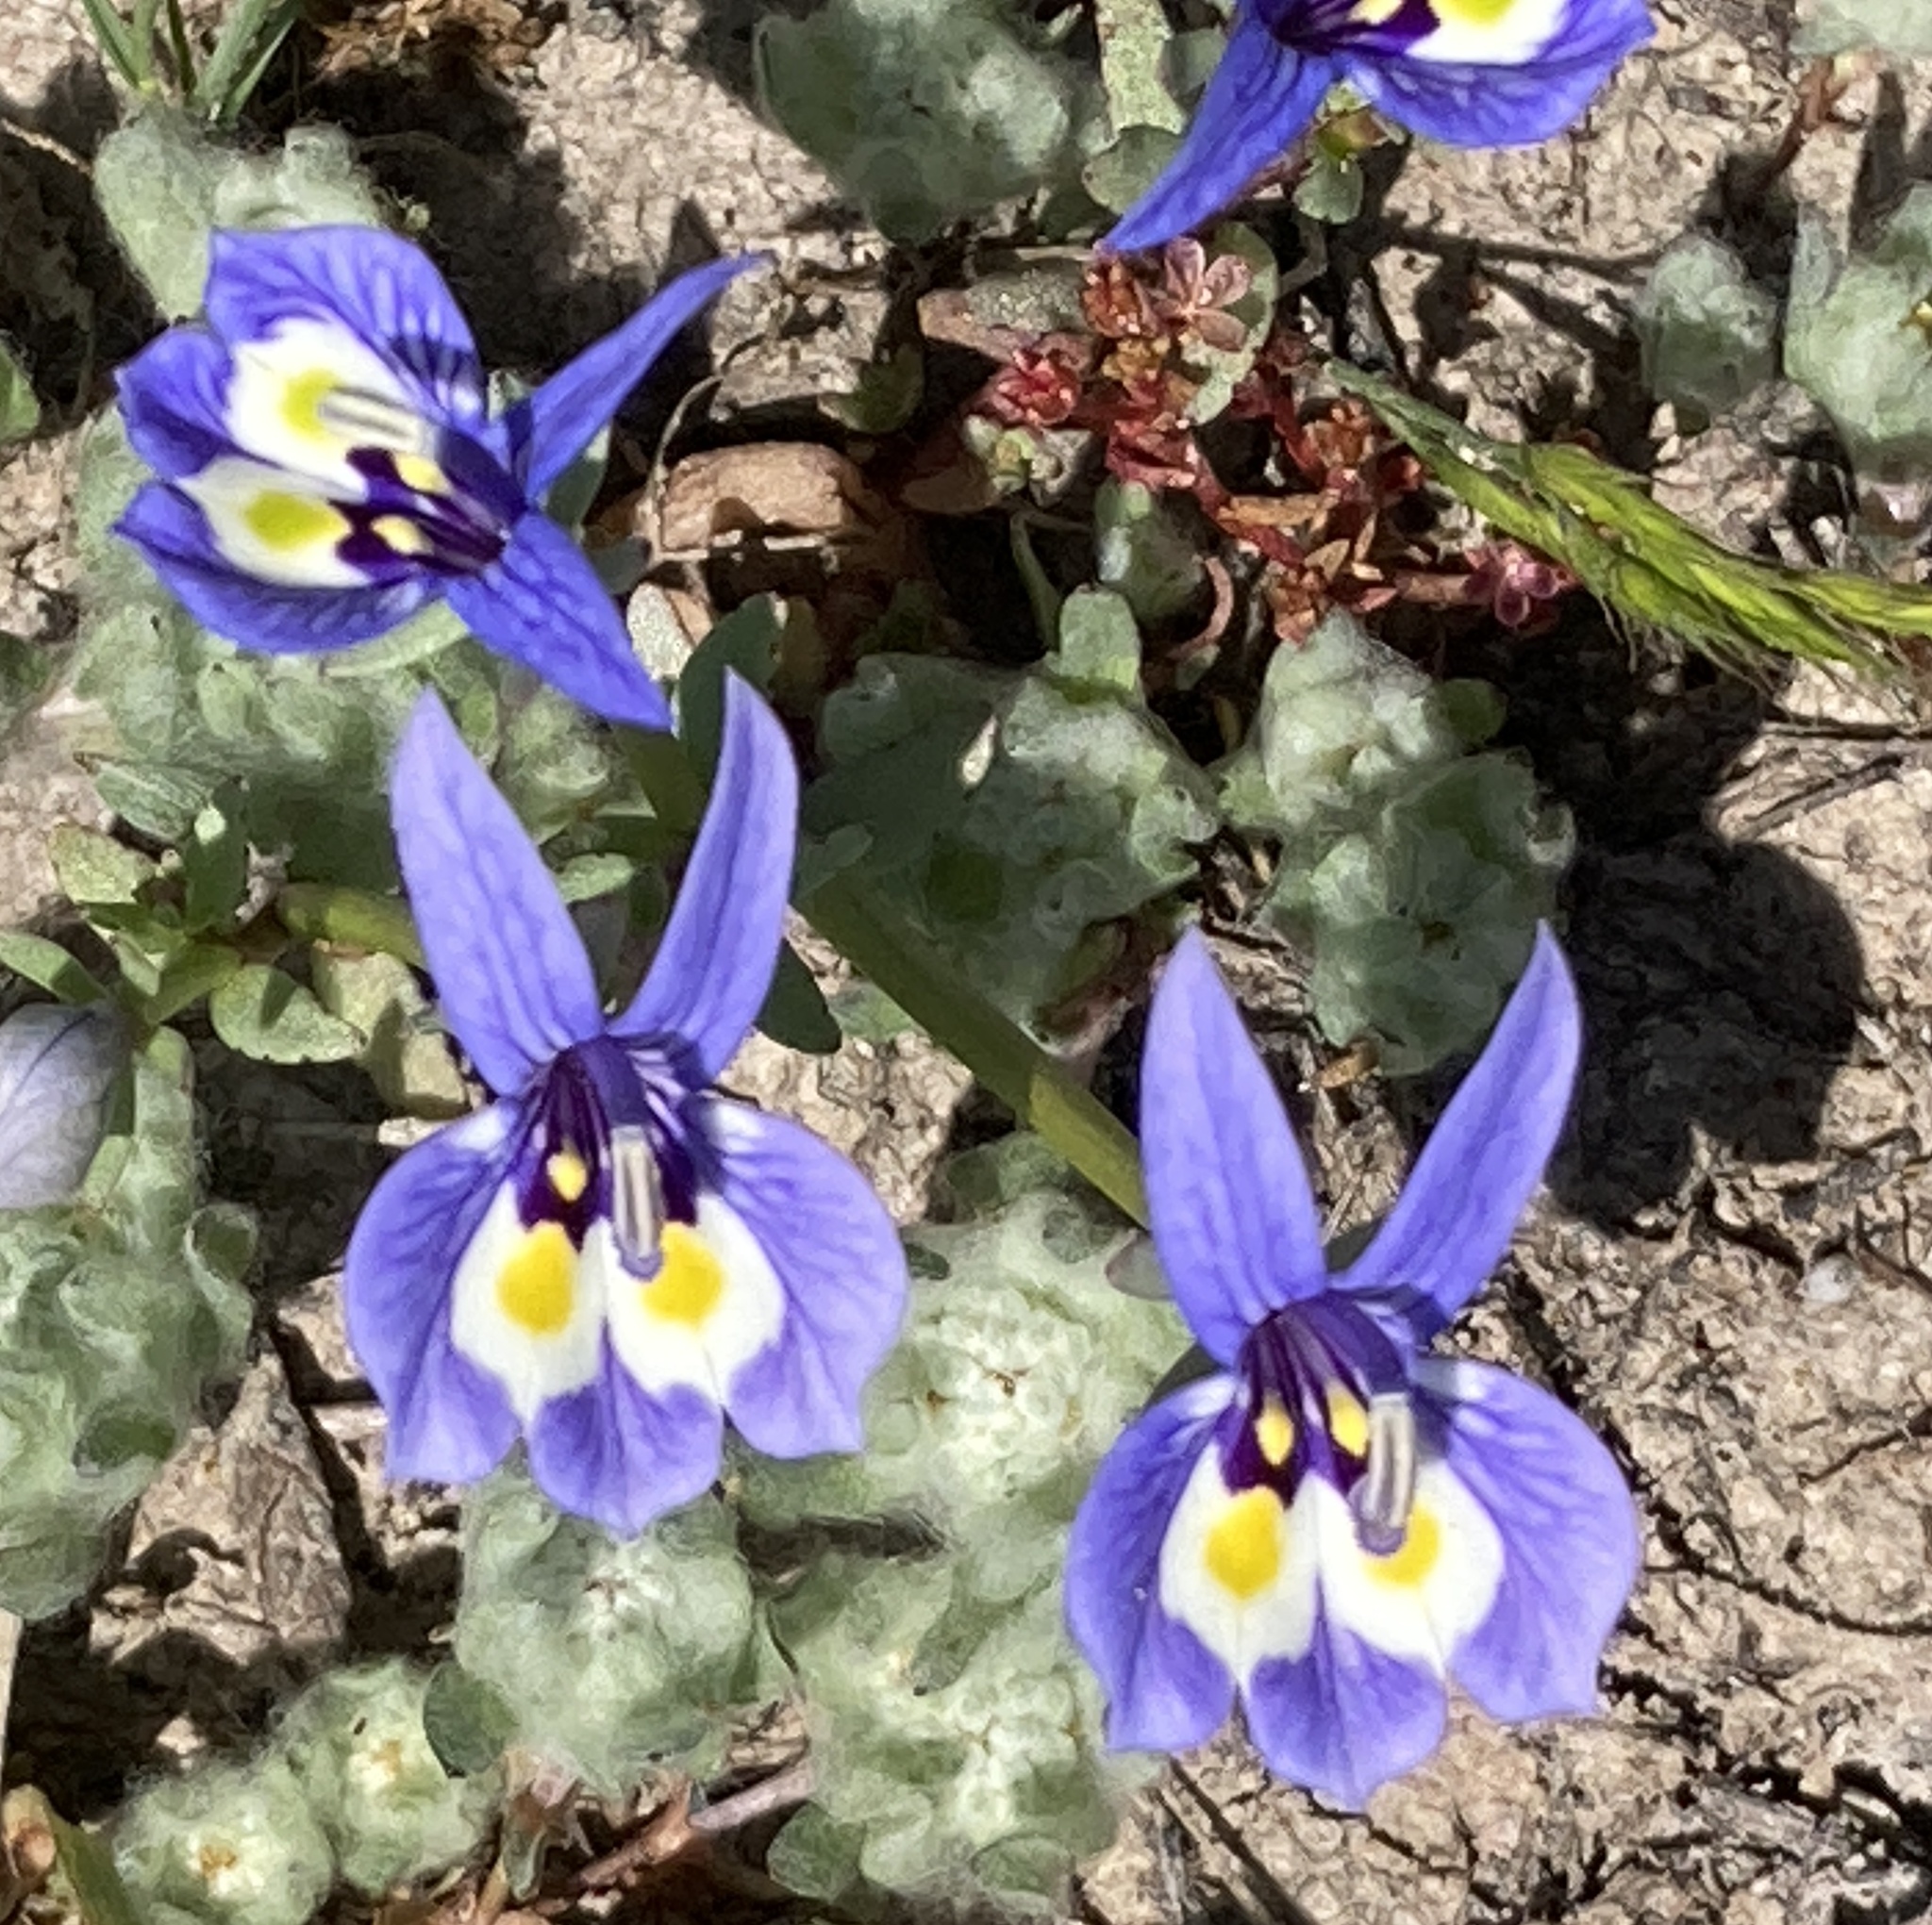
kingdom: Plantae
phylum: Tracheophyta
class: Magnoliopsida
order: Asterales
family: Campanulaceae
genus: Downingia
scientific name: Downingia insignis
